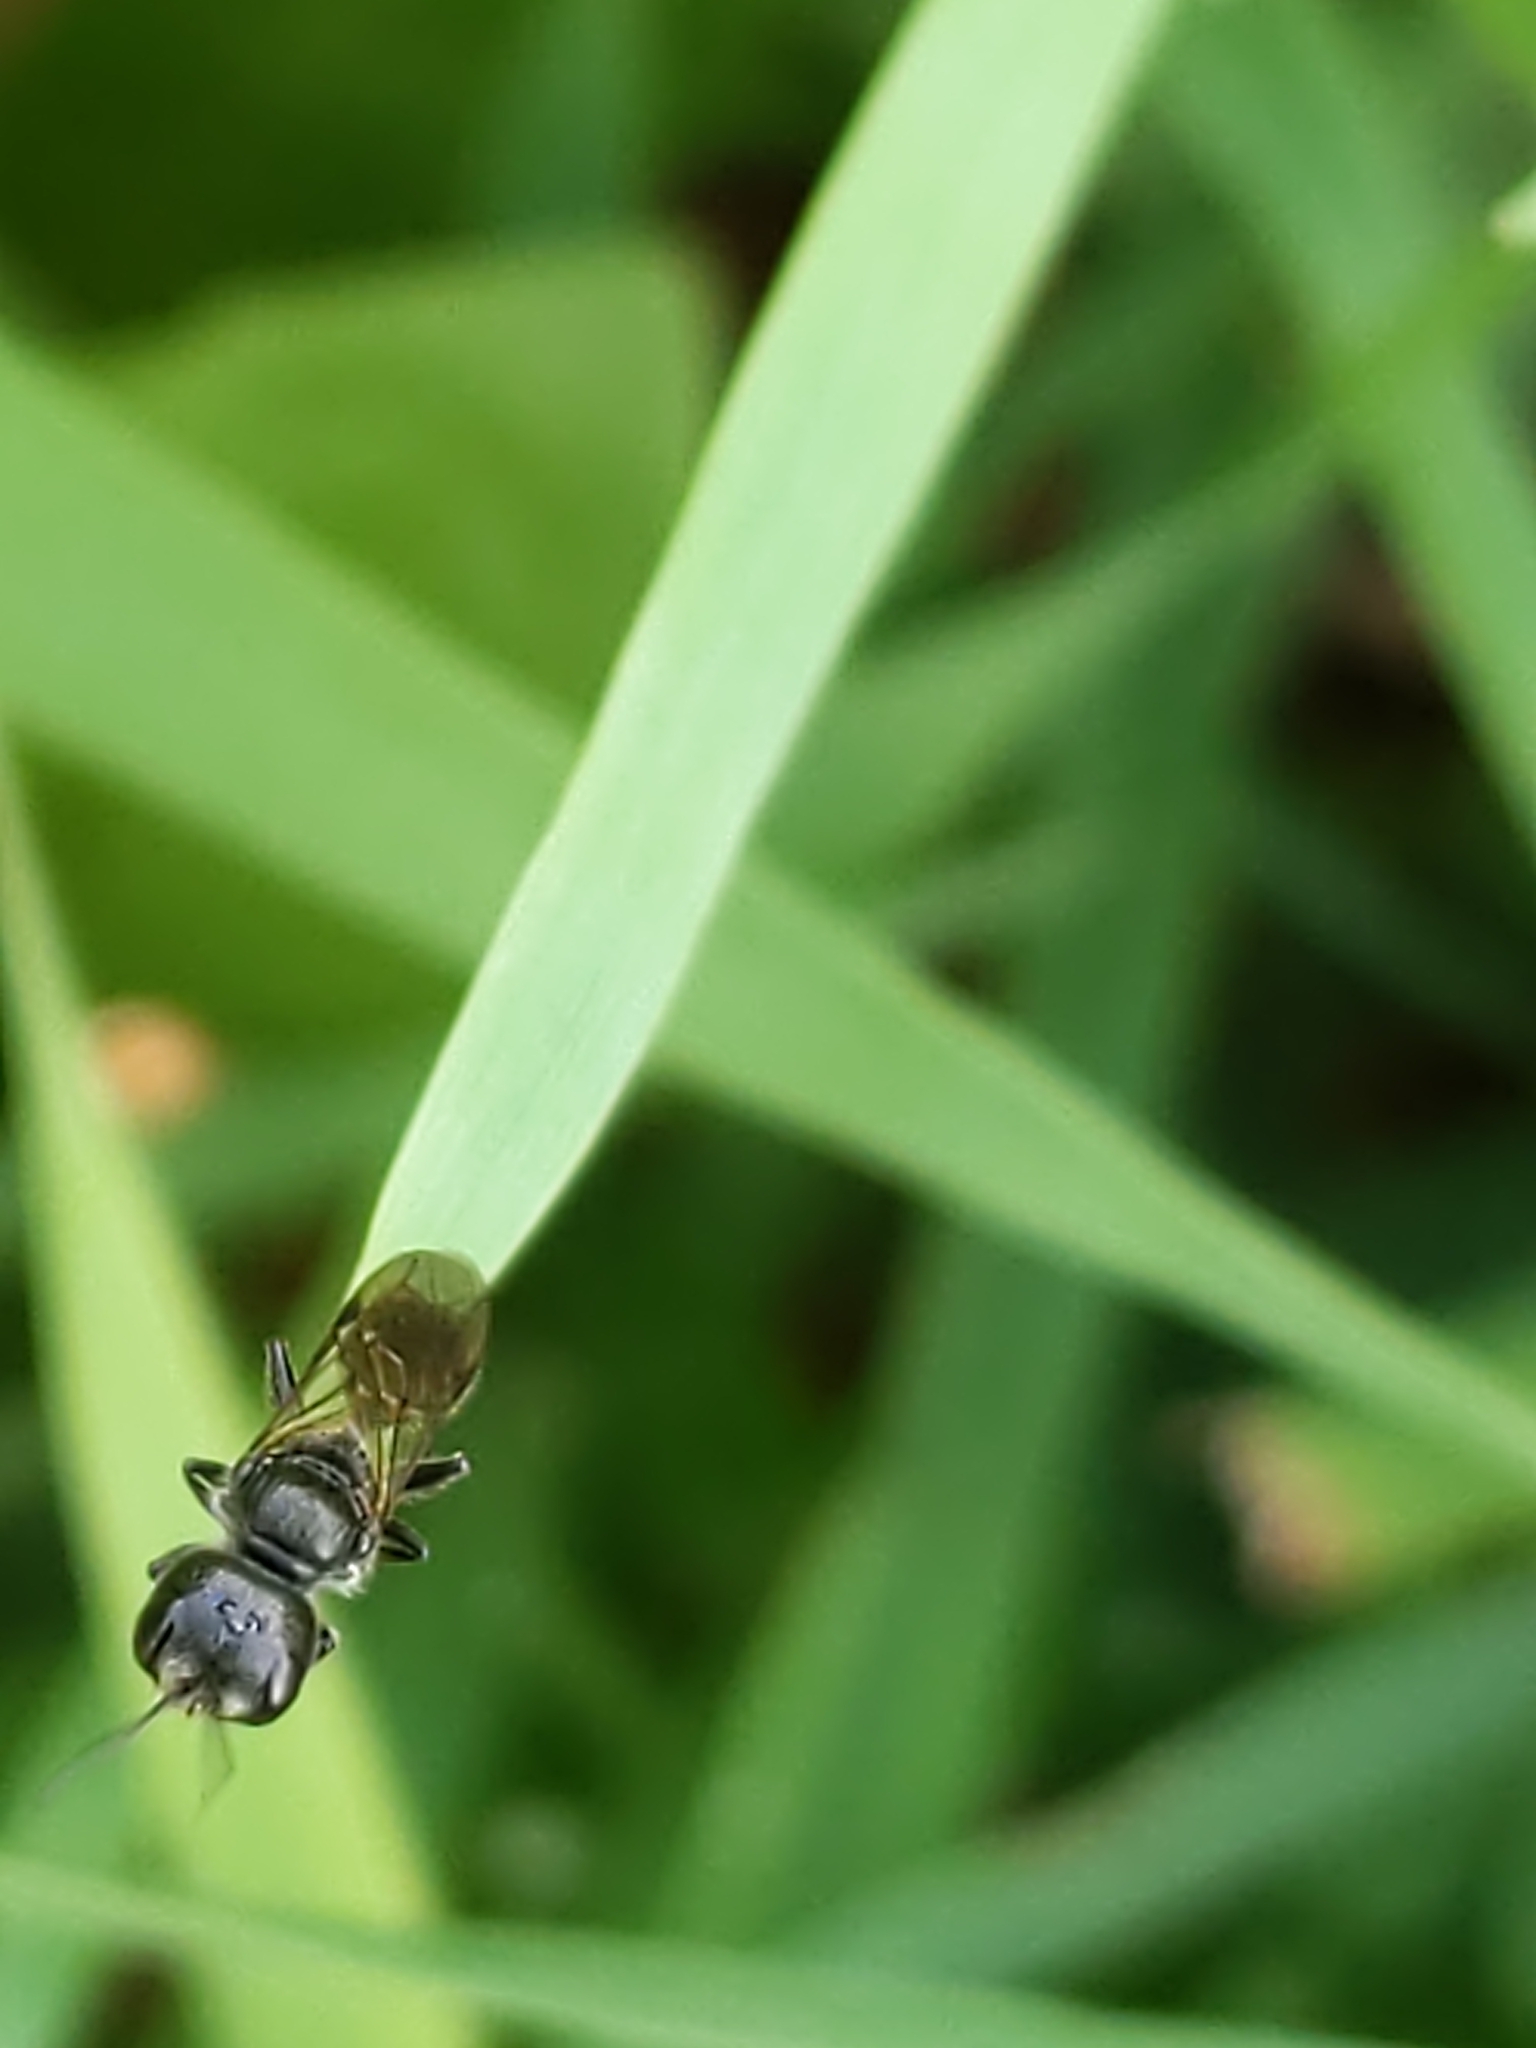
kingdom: Animalia
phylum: Arthropoda
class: Insecta
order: Hymenoptera
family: Crabronidae
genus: Pemphredon
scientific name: Pemphredon
